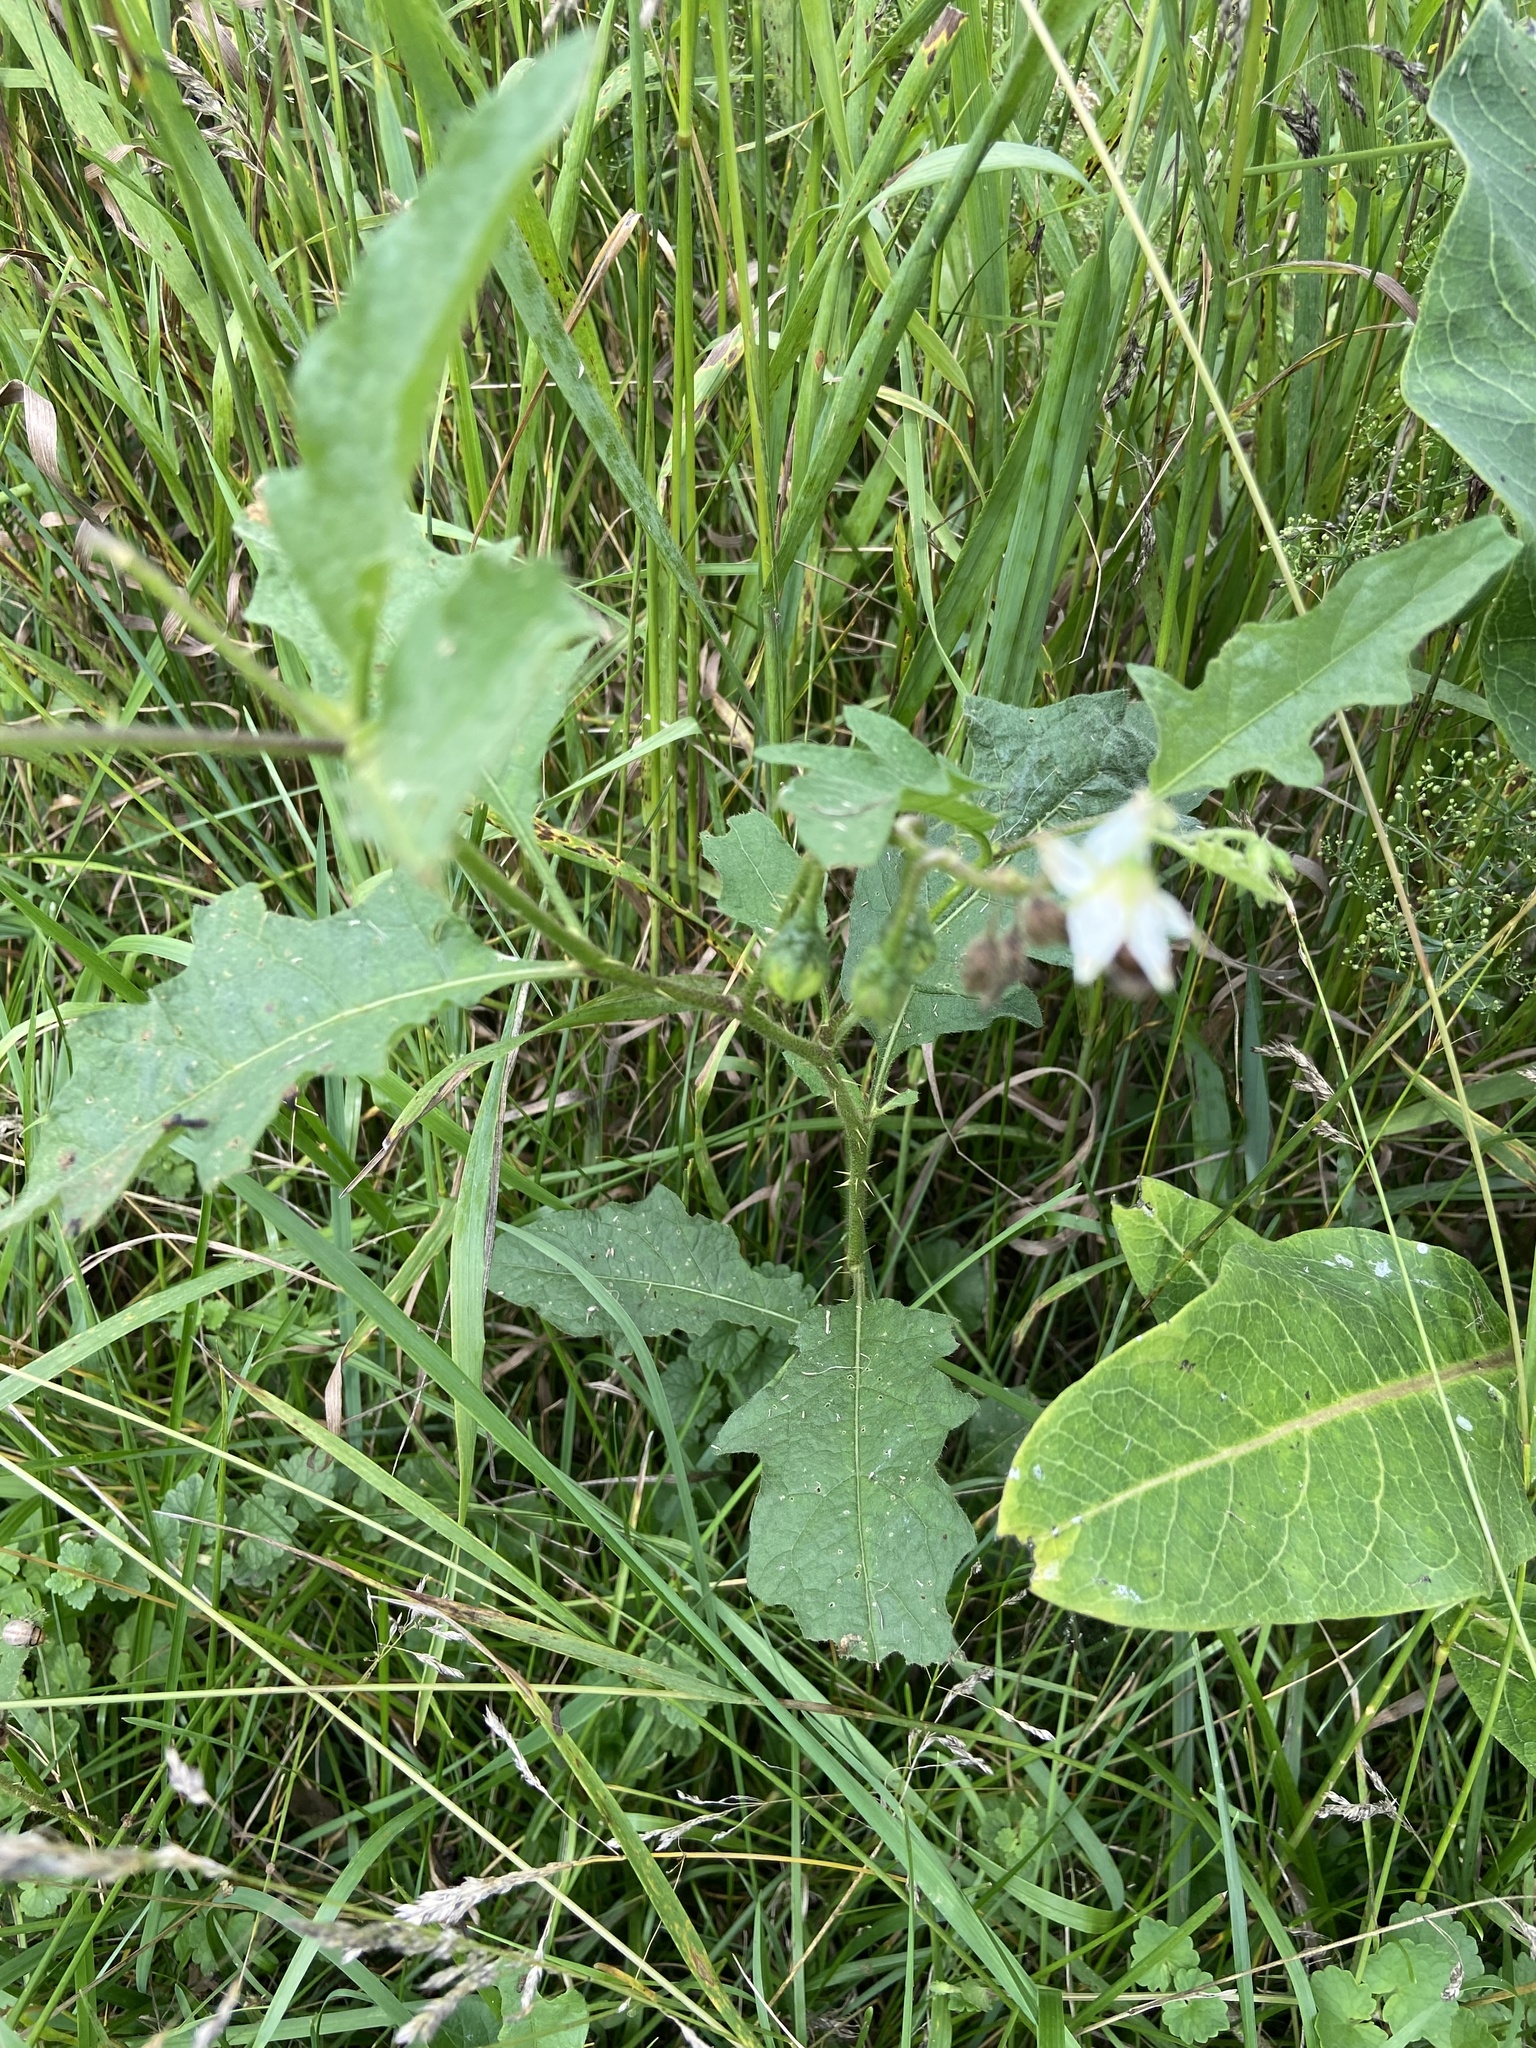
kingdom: Plantae
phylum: Tracheophyta
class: Magnoliopsida
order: Solanales
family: Solanaceae
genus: Solanum
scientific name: Solanum carolinense
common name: Horse-nettle
